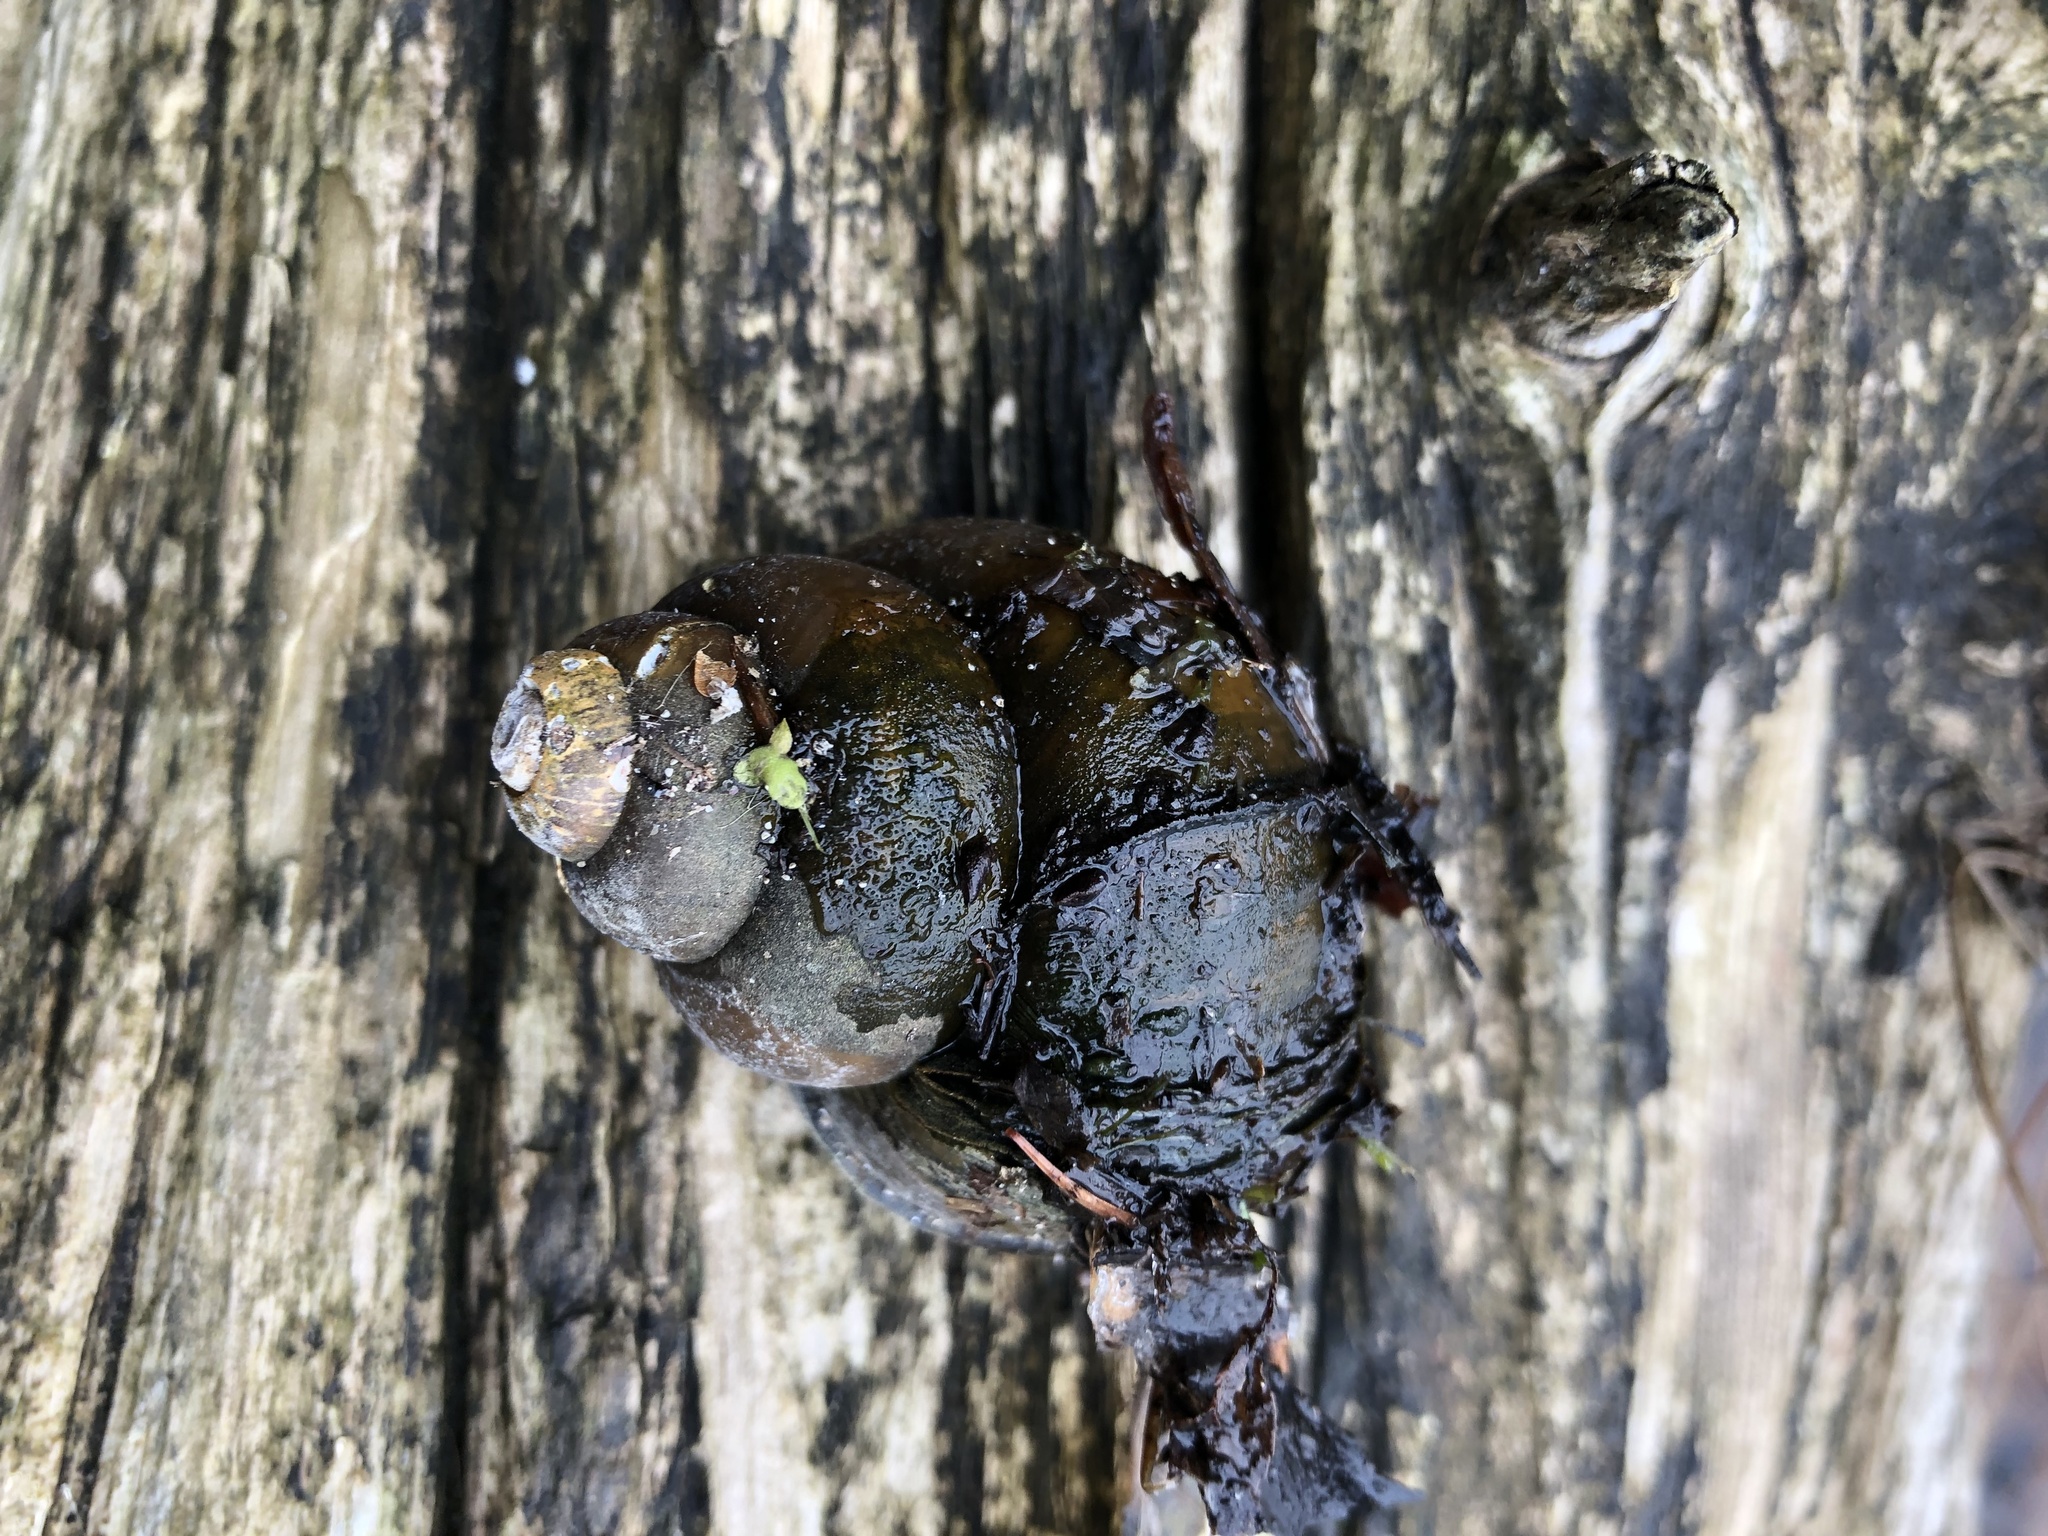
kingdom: Animalia
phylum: Mollusca
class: Gastropoda
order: Architaenioglossa
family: Viviparidae
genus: Cipangopaludina
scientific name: Cipangopaludina chinensis
